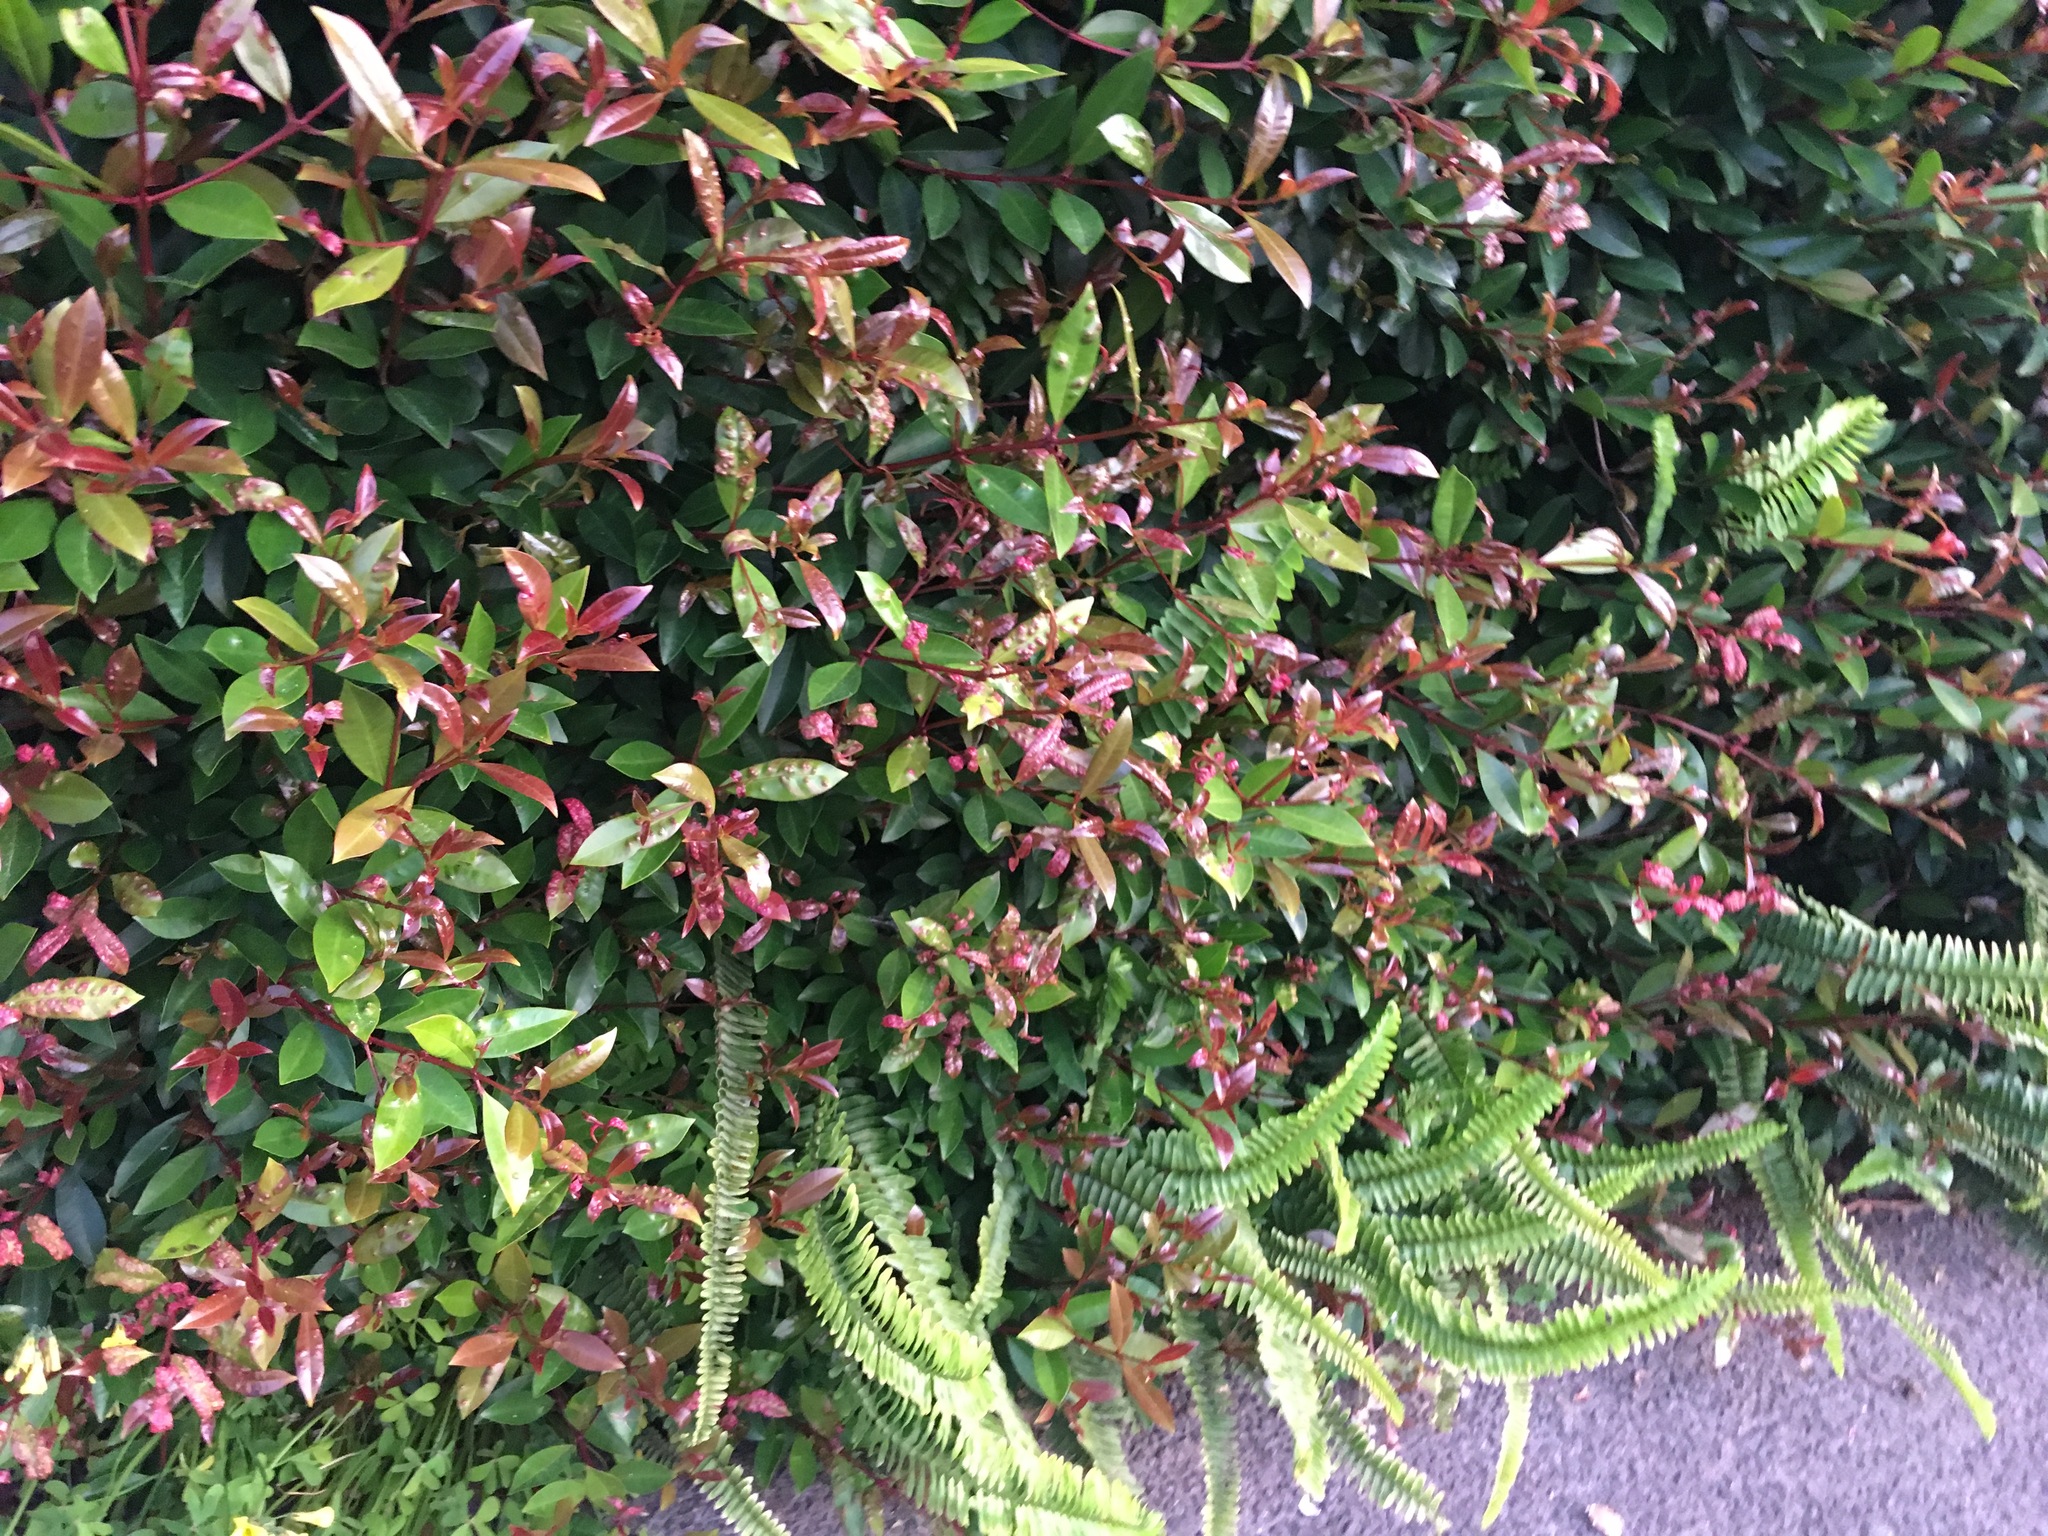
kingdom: Plantae
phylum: Tracheophyta
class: Polypodiopsida
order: Polypodiales
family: Nephrolepidaceae
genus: Nephrolepis
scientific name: Nephrolepis cordifolia
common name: Narrow swordfern
